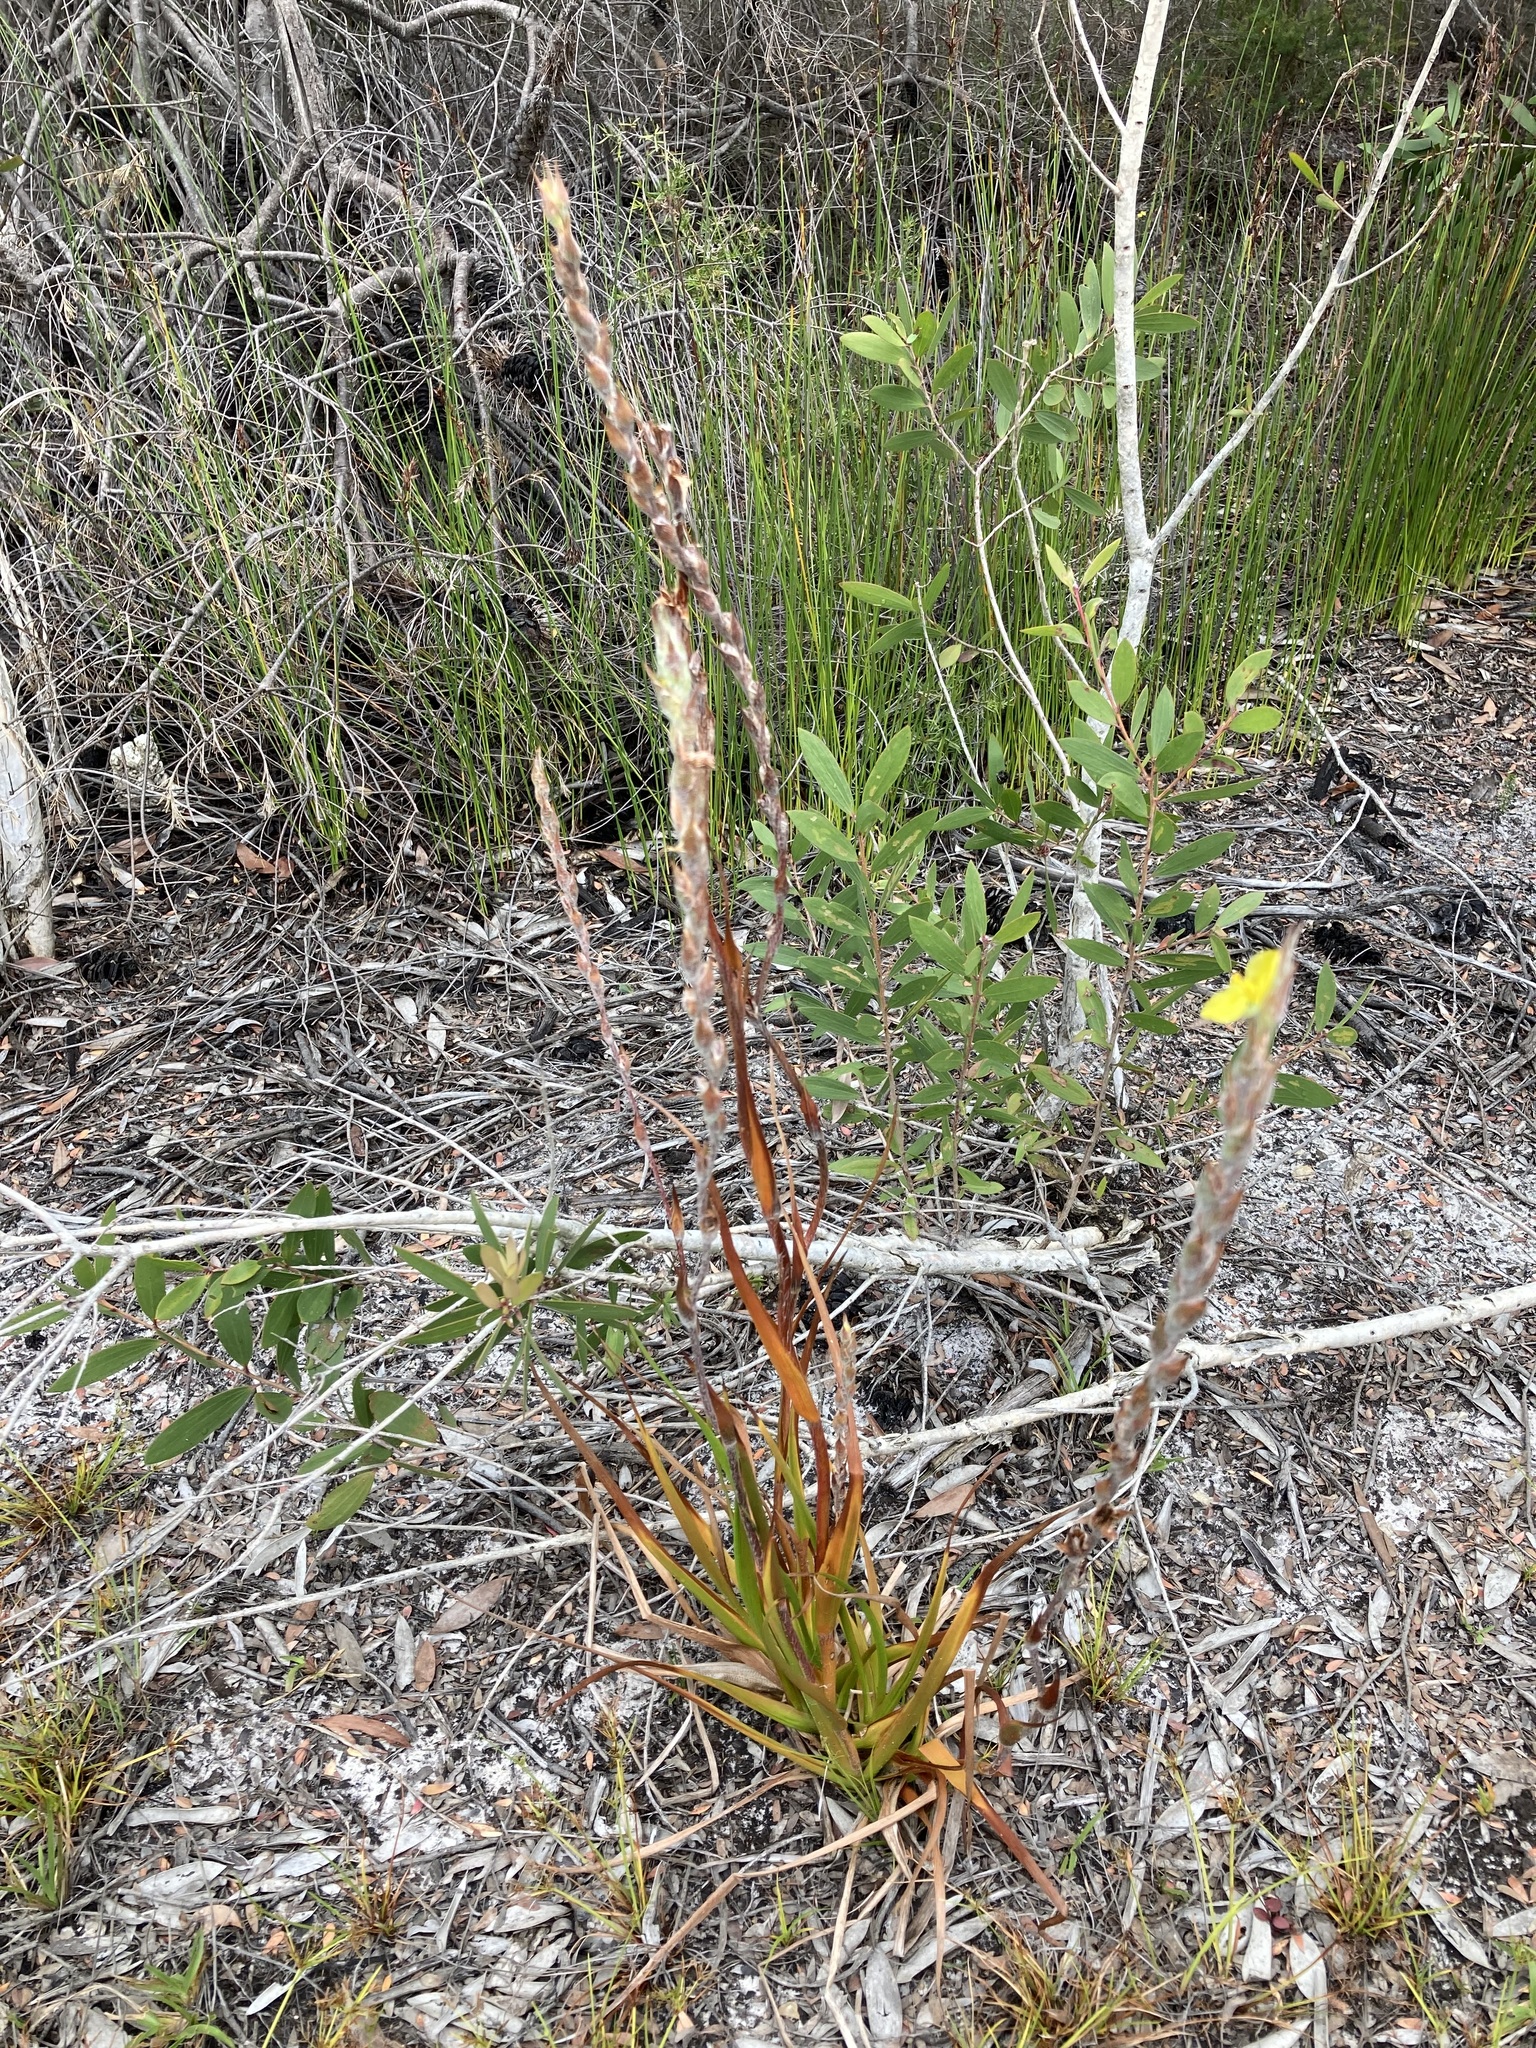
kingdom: Plantae
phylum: Tracheophyta
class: Liliopsida
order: Commelinales
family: Philydraceae
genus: Philydrum
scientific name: Philydrum lanuginosum
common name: Woolly frog's mouth
